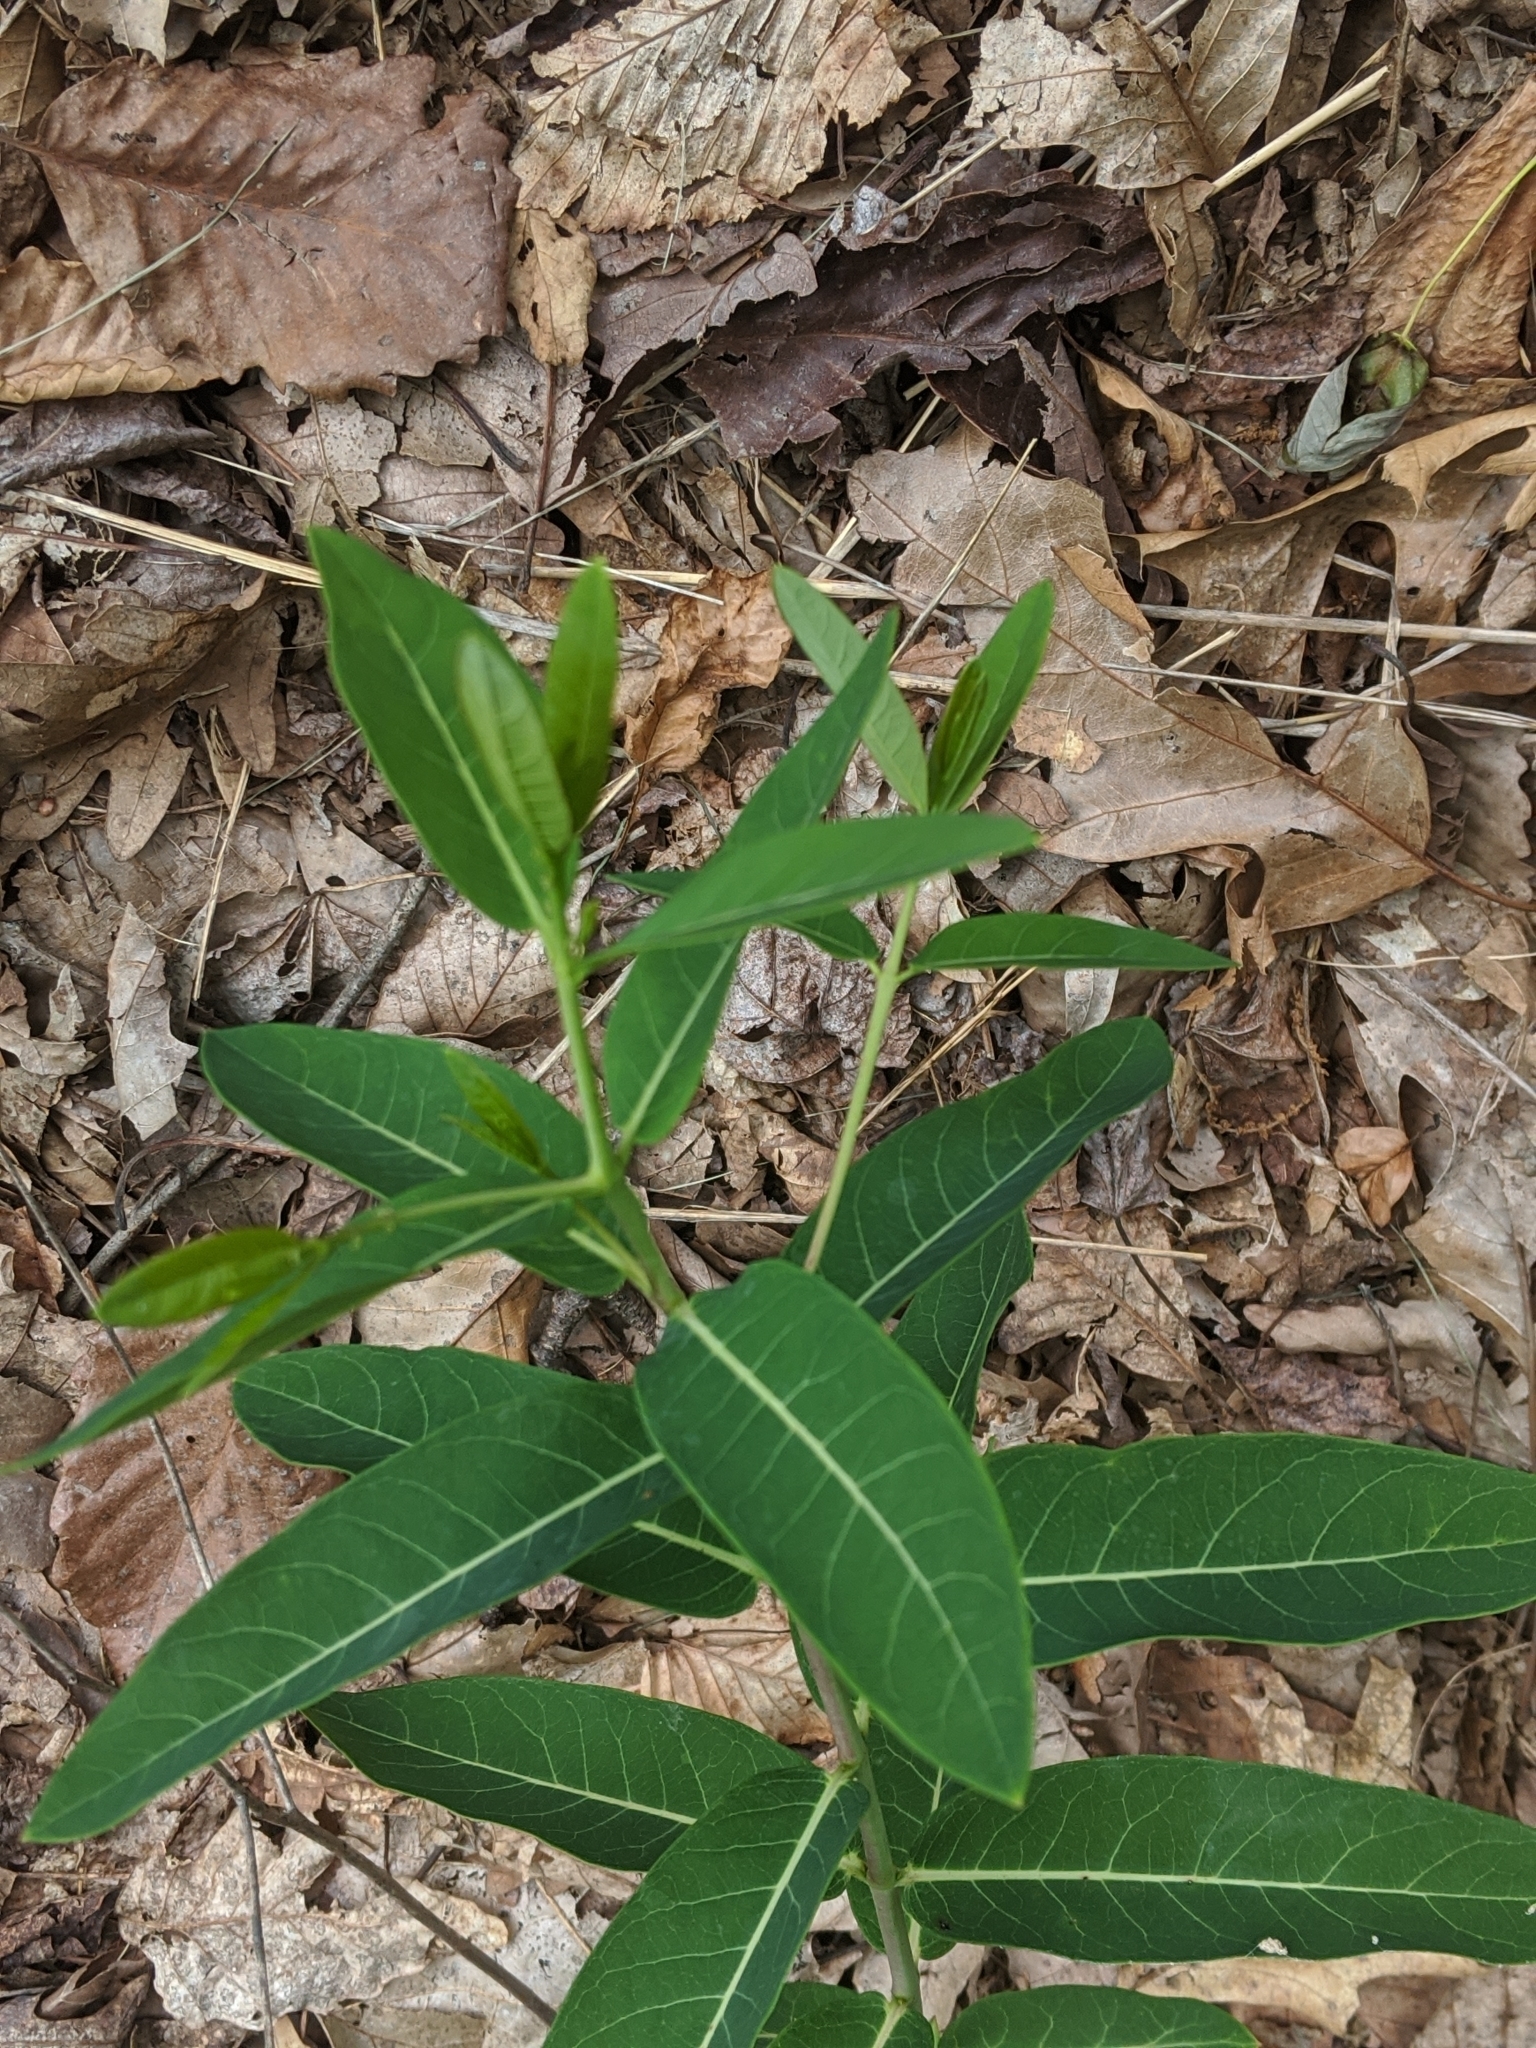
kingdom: Plantae
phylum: Tracheophyta
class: Magnoliopsida
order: Gentianales
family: Apocynaceae
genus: Apocynum
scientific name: Apocynum cannabinum
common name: Hemp dogbane
